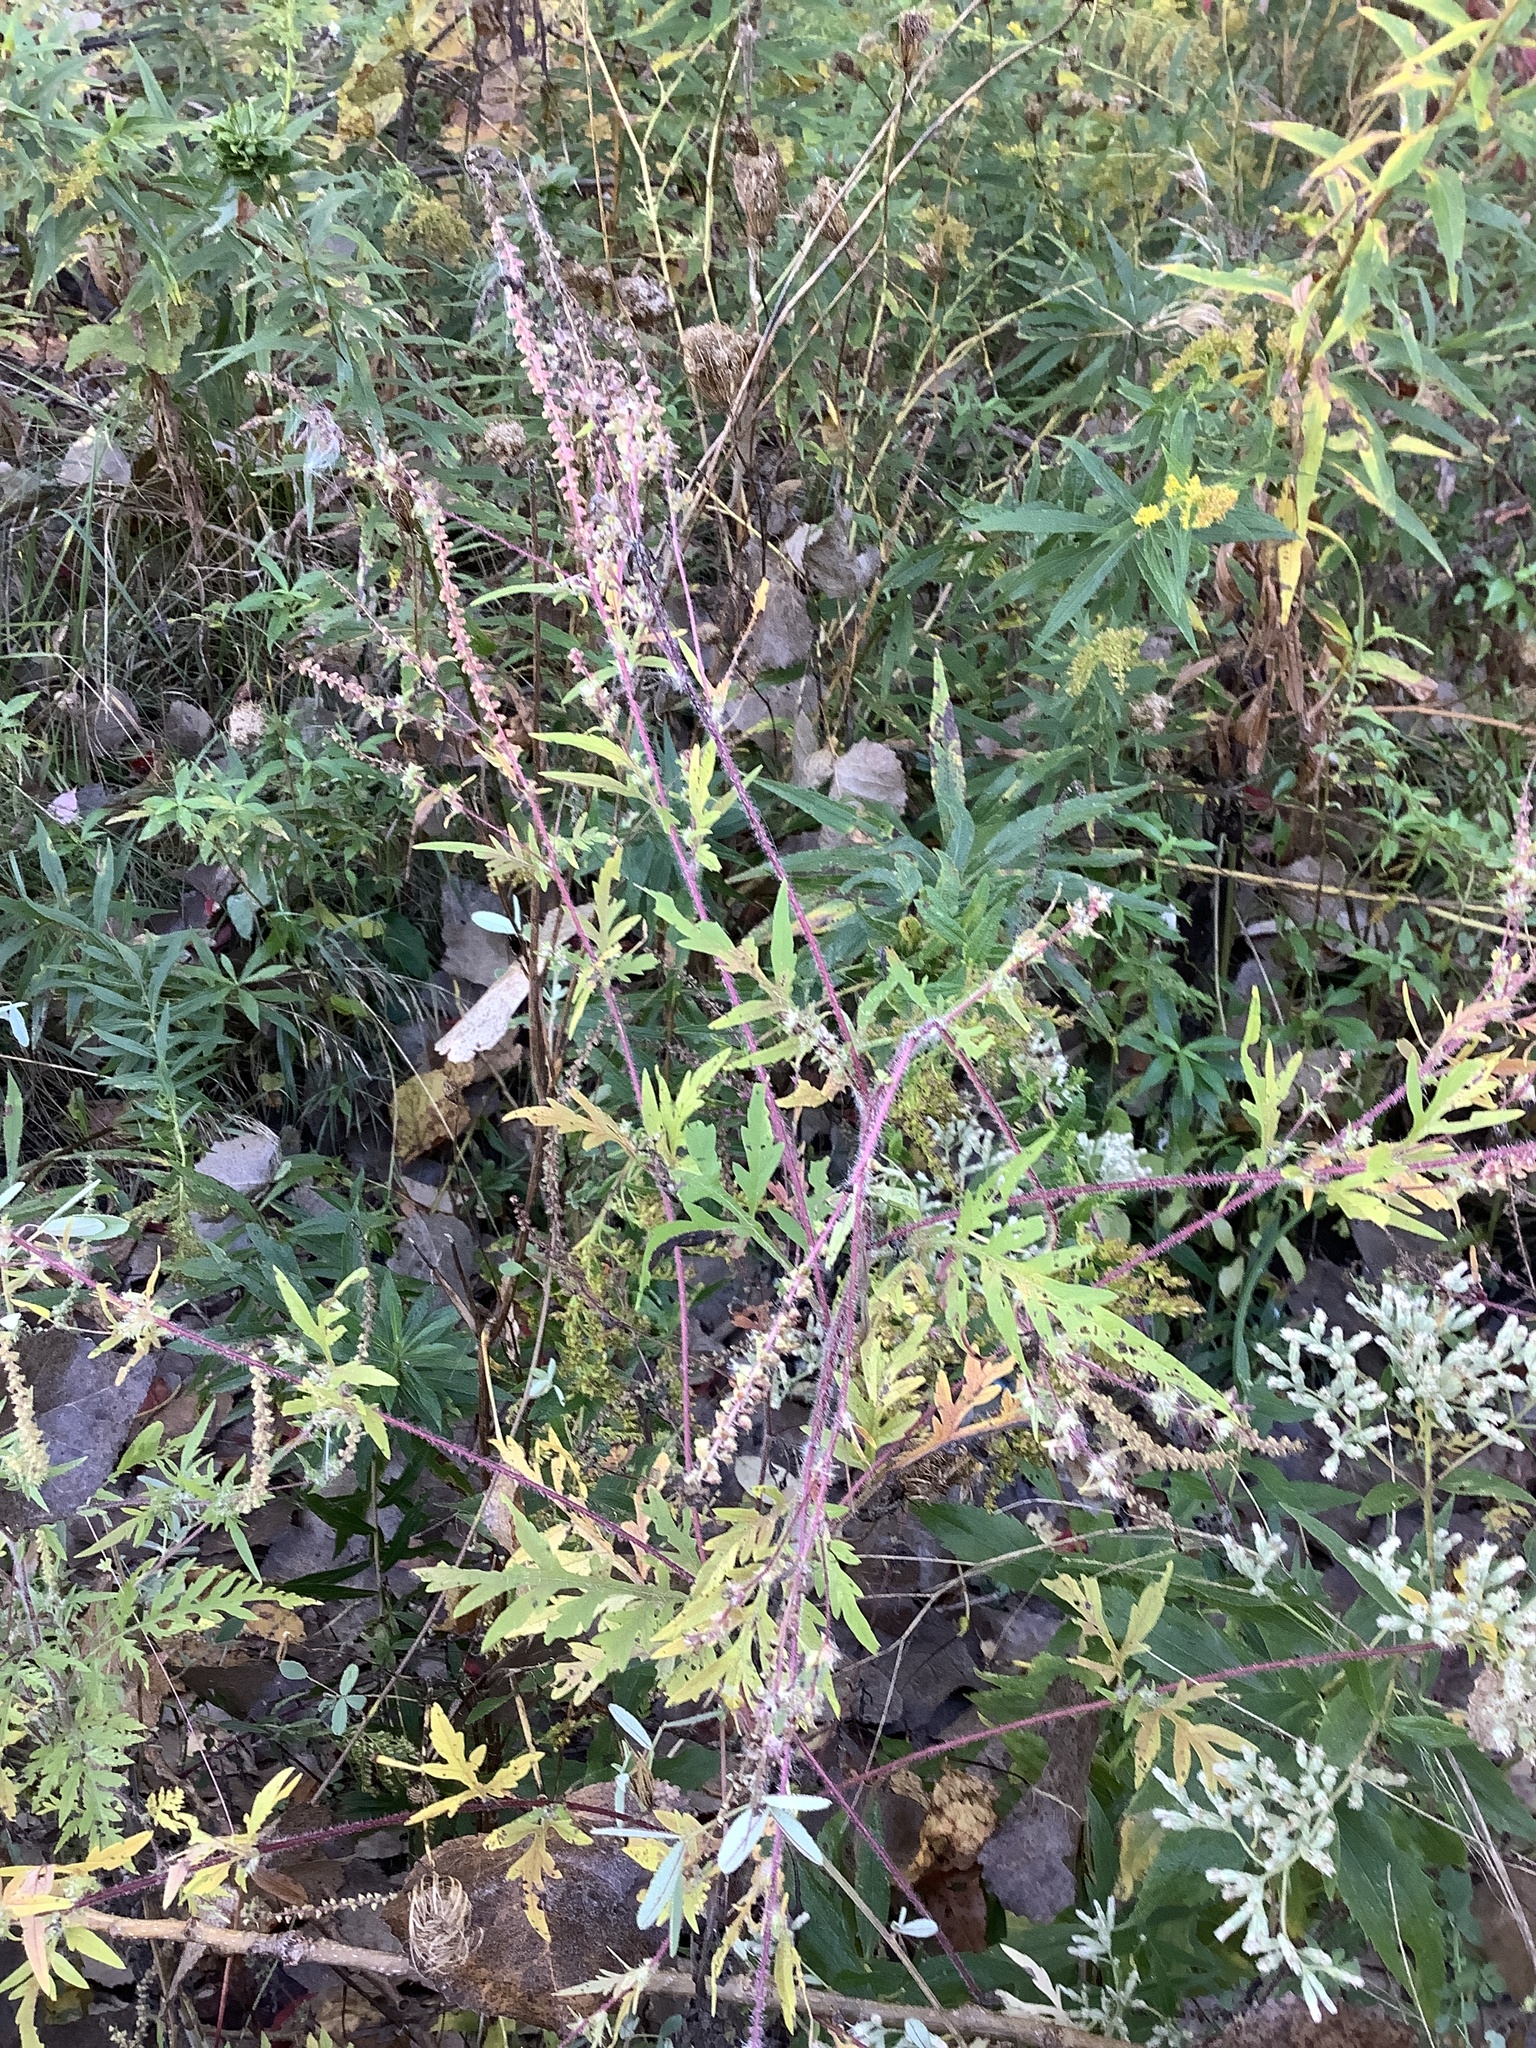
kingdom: Plantae
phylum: Tracheophyta
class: Magnoliopsida
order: Asterales
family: Asteraceae
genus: Ambrosia
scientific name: Ambrosia artemisiifolia
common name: Annual ragweed
